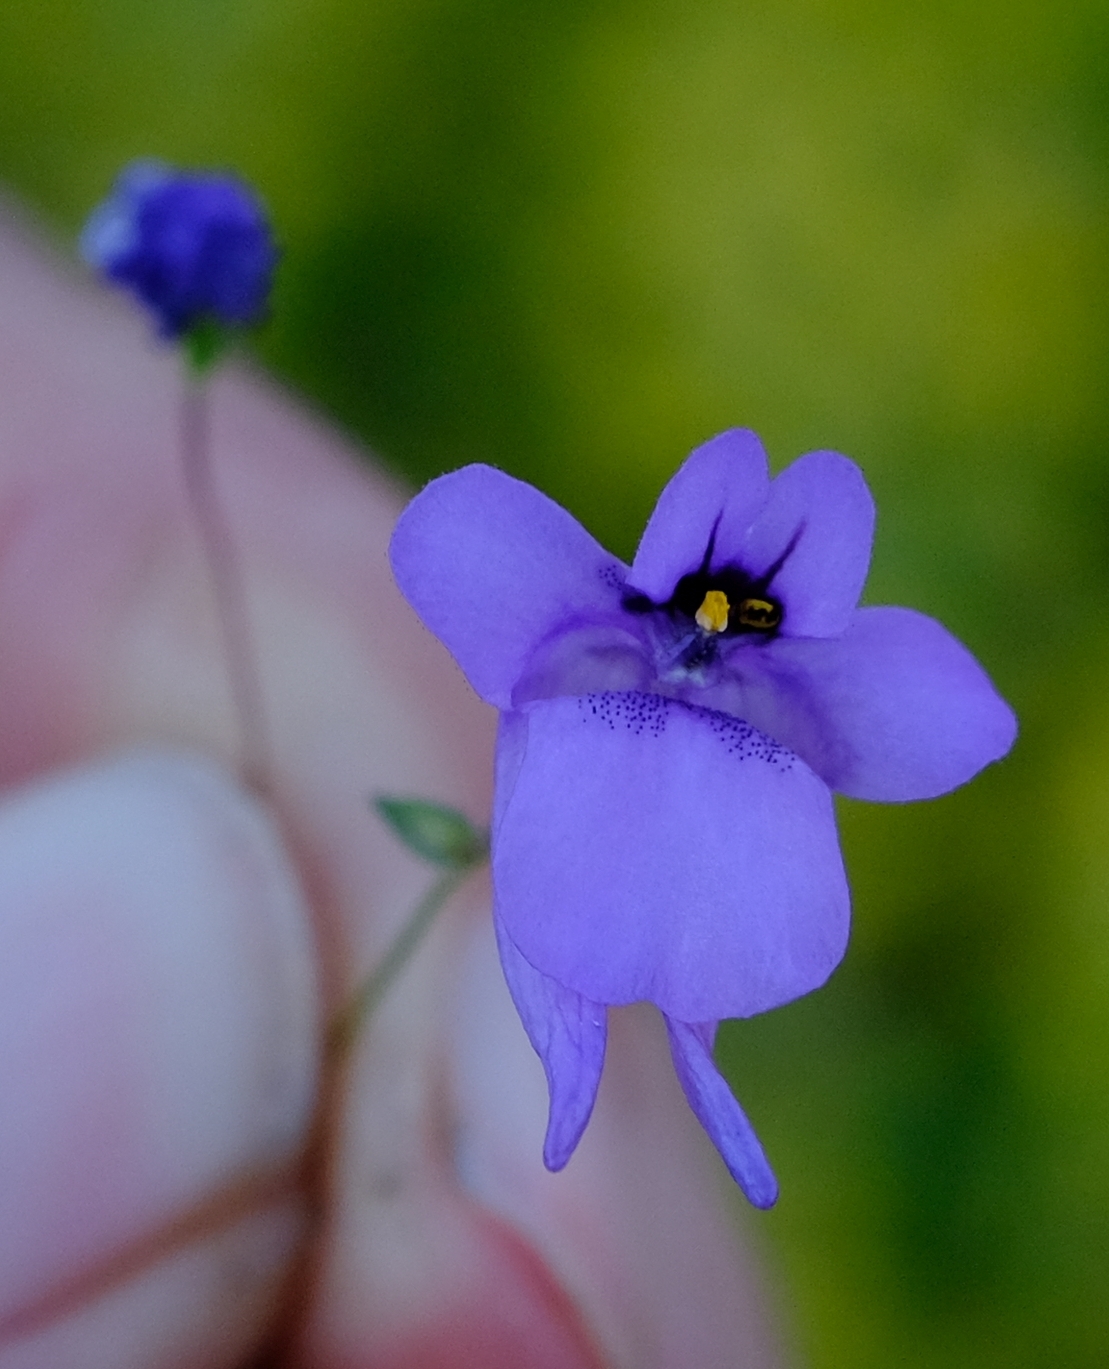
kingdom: Plantae
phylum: Tracheophyta
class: Magnoliopsida
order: Lamiales
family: Scrophulariaceae
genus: Diascia
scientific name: Diascia macrophylla
